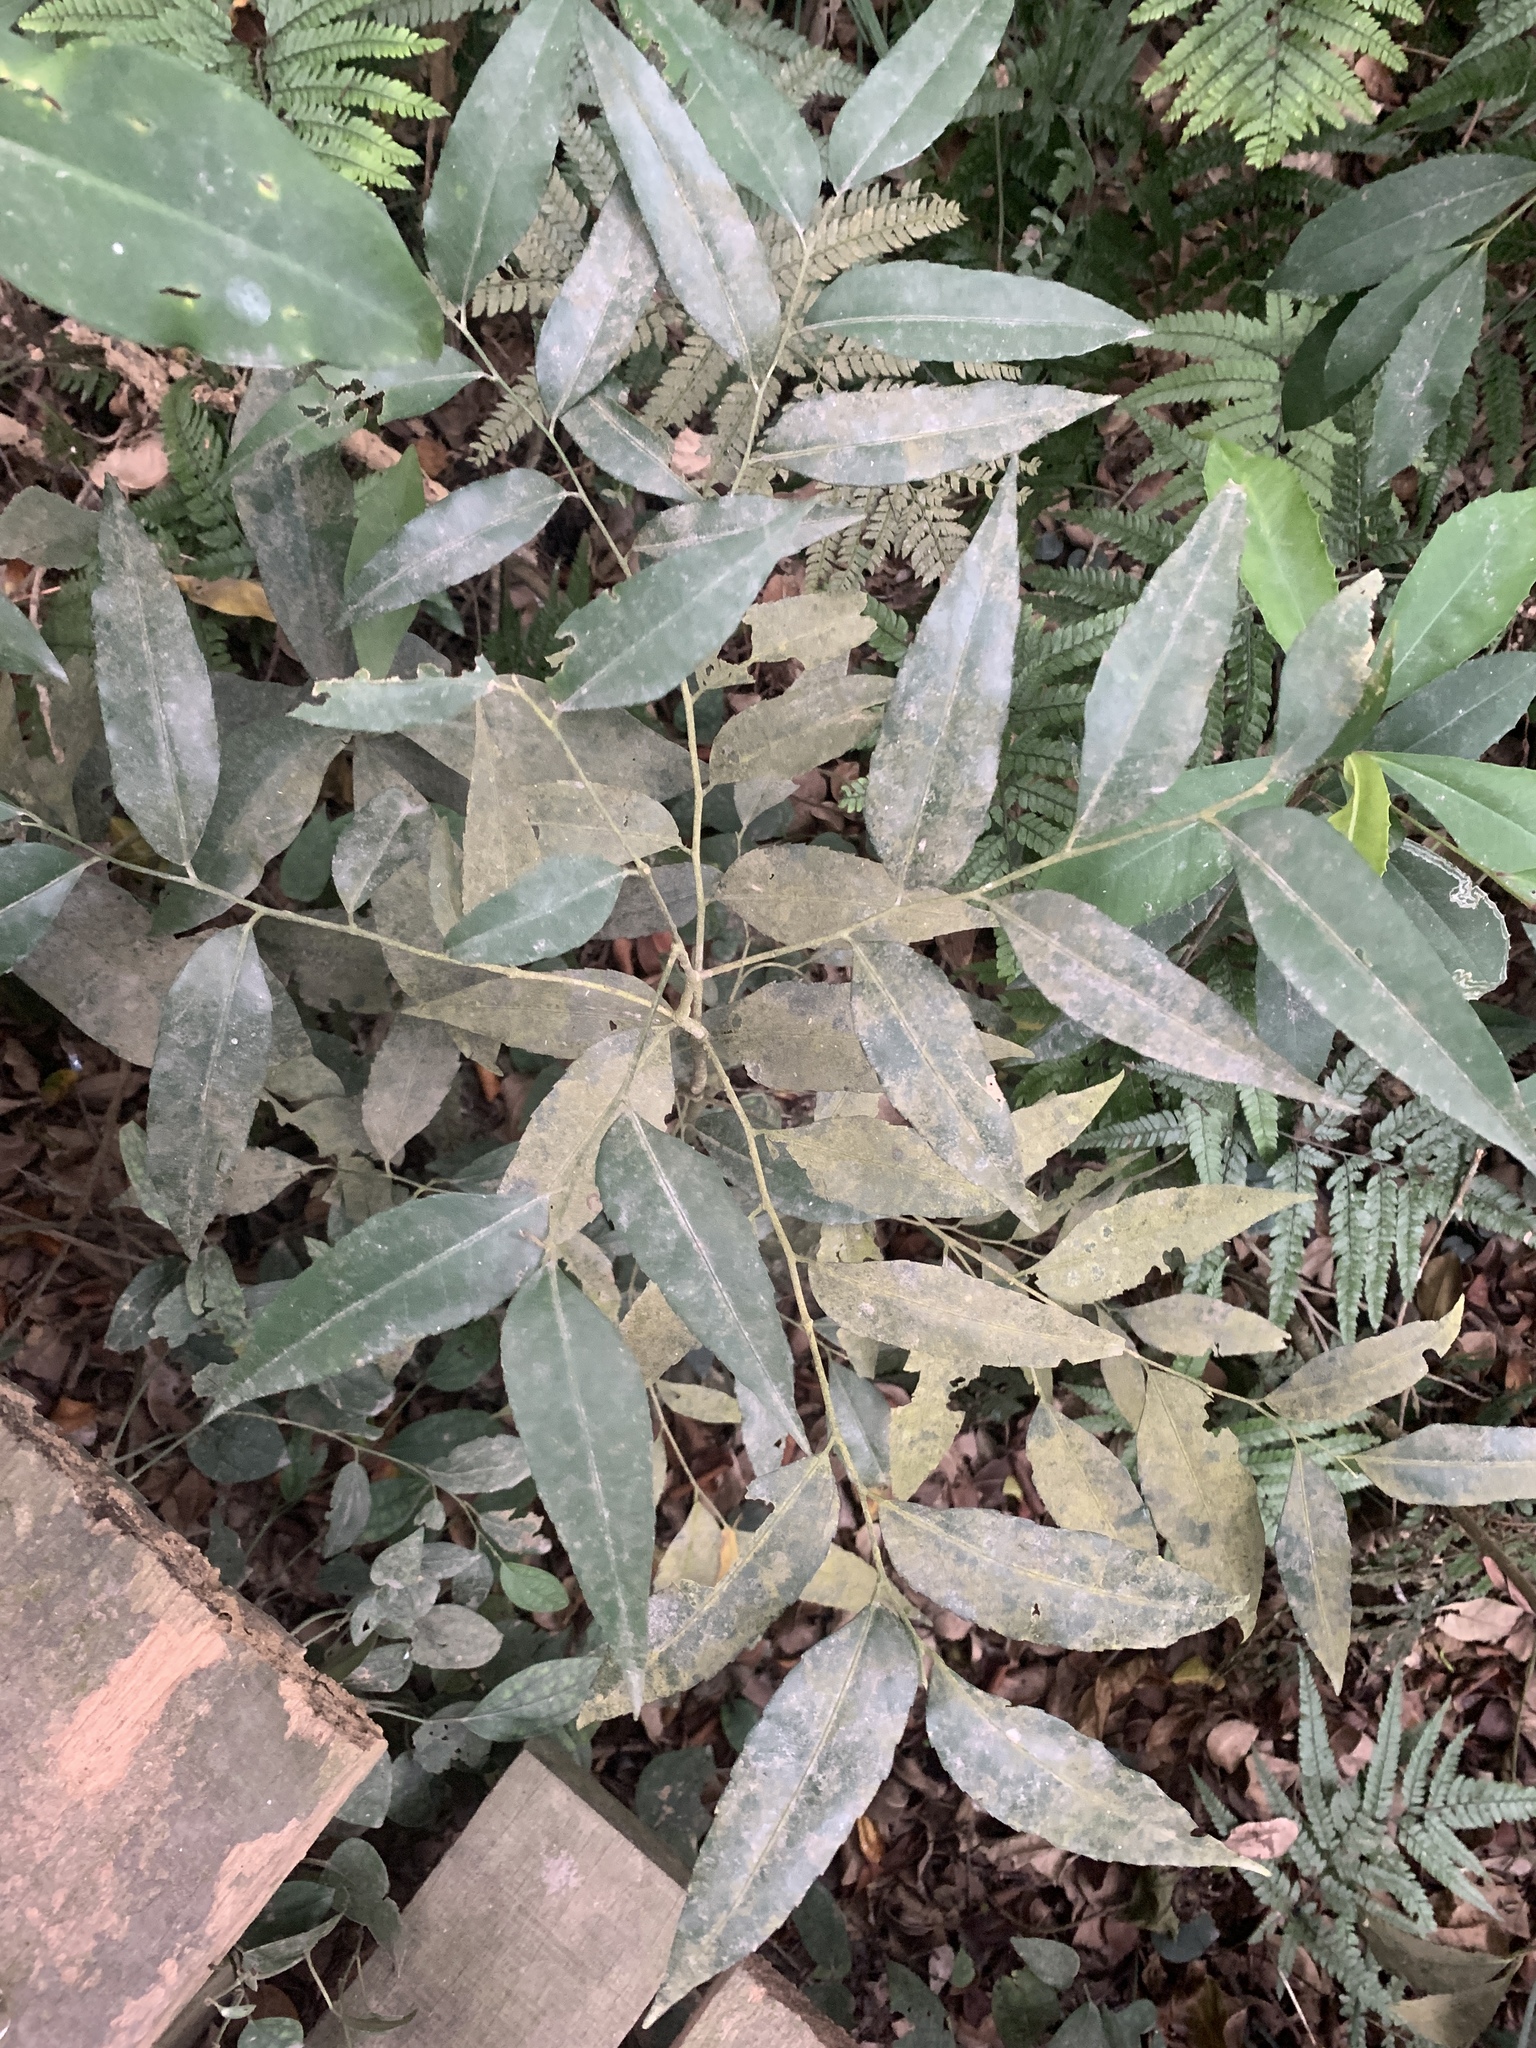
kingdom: Plantae
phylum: Tracheophyta
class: Magnoliopsida
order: Malpighiales
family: Putranjivaceae
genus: Putranjiva
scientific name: Putranjiva formosana
